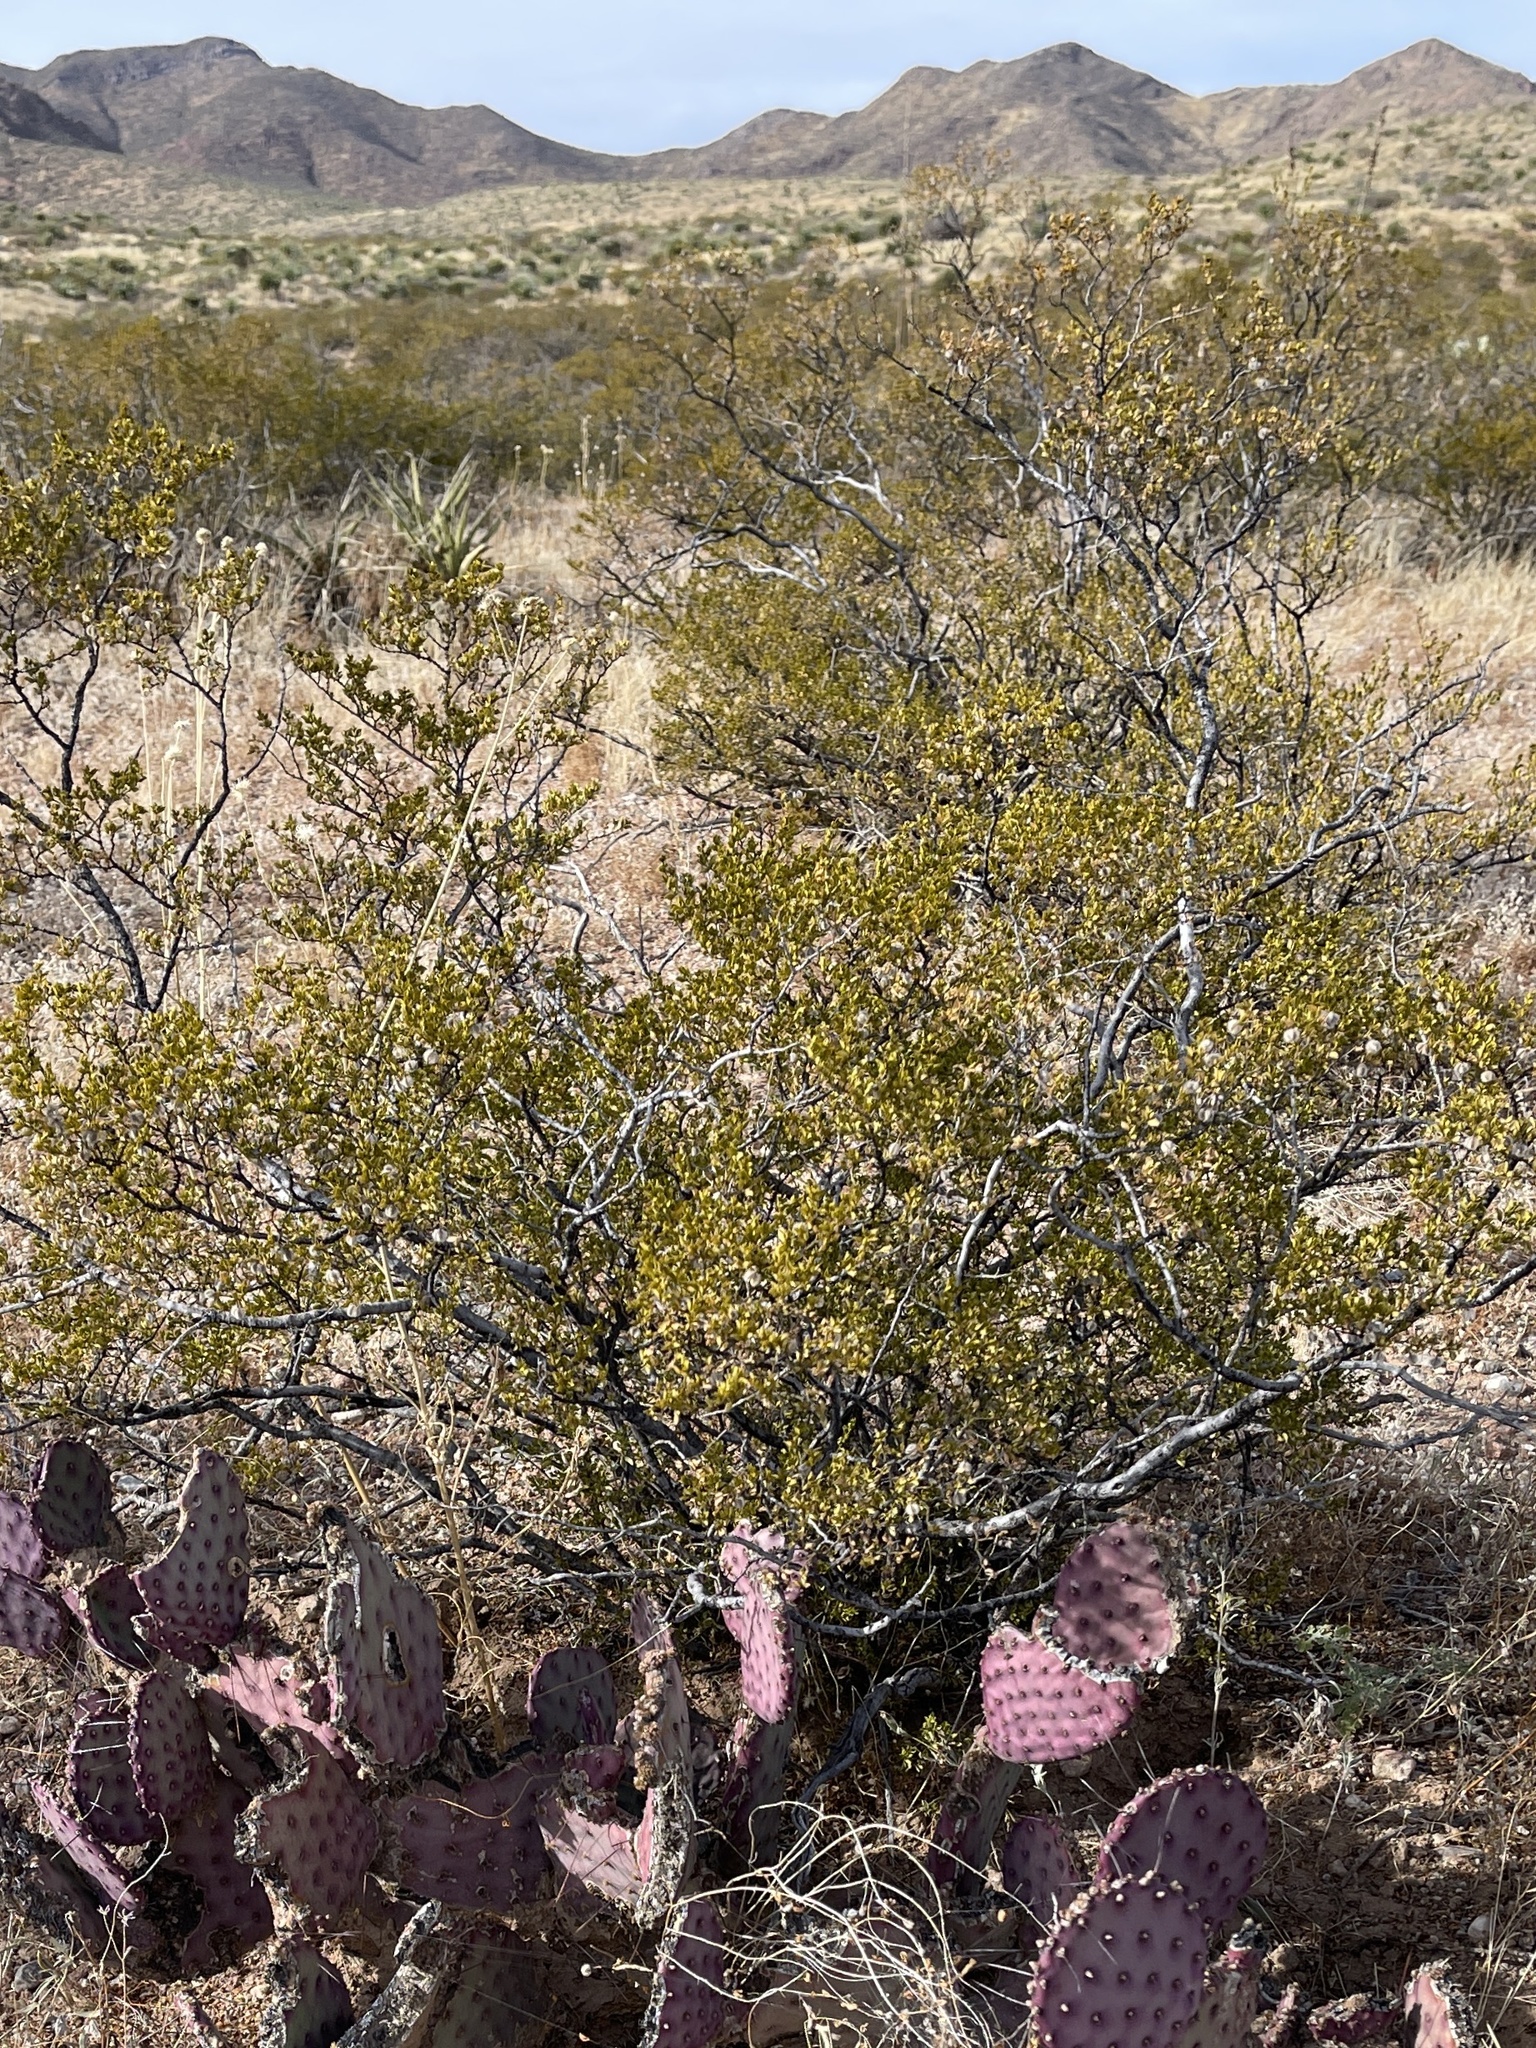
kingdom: Plantae
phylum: Tracheophyta
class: Magnoliopsida
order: Zygophyllales
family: Zygophyllaceae
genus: Larrea
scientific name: Larrea tridentata
